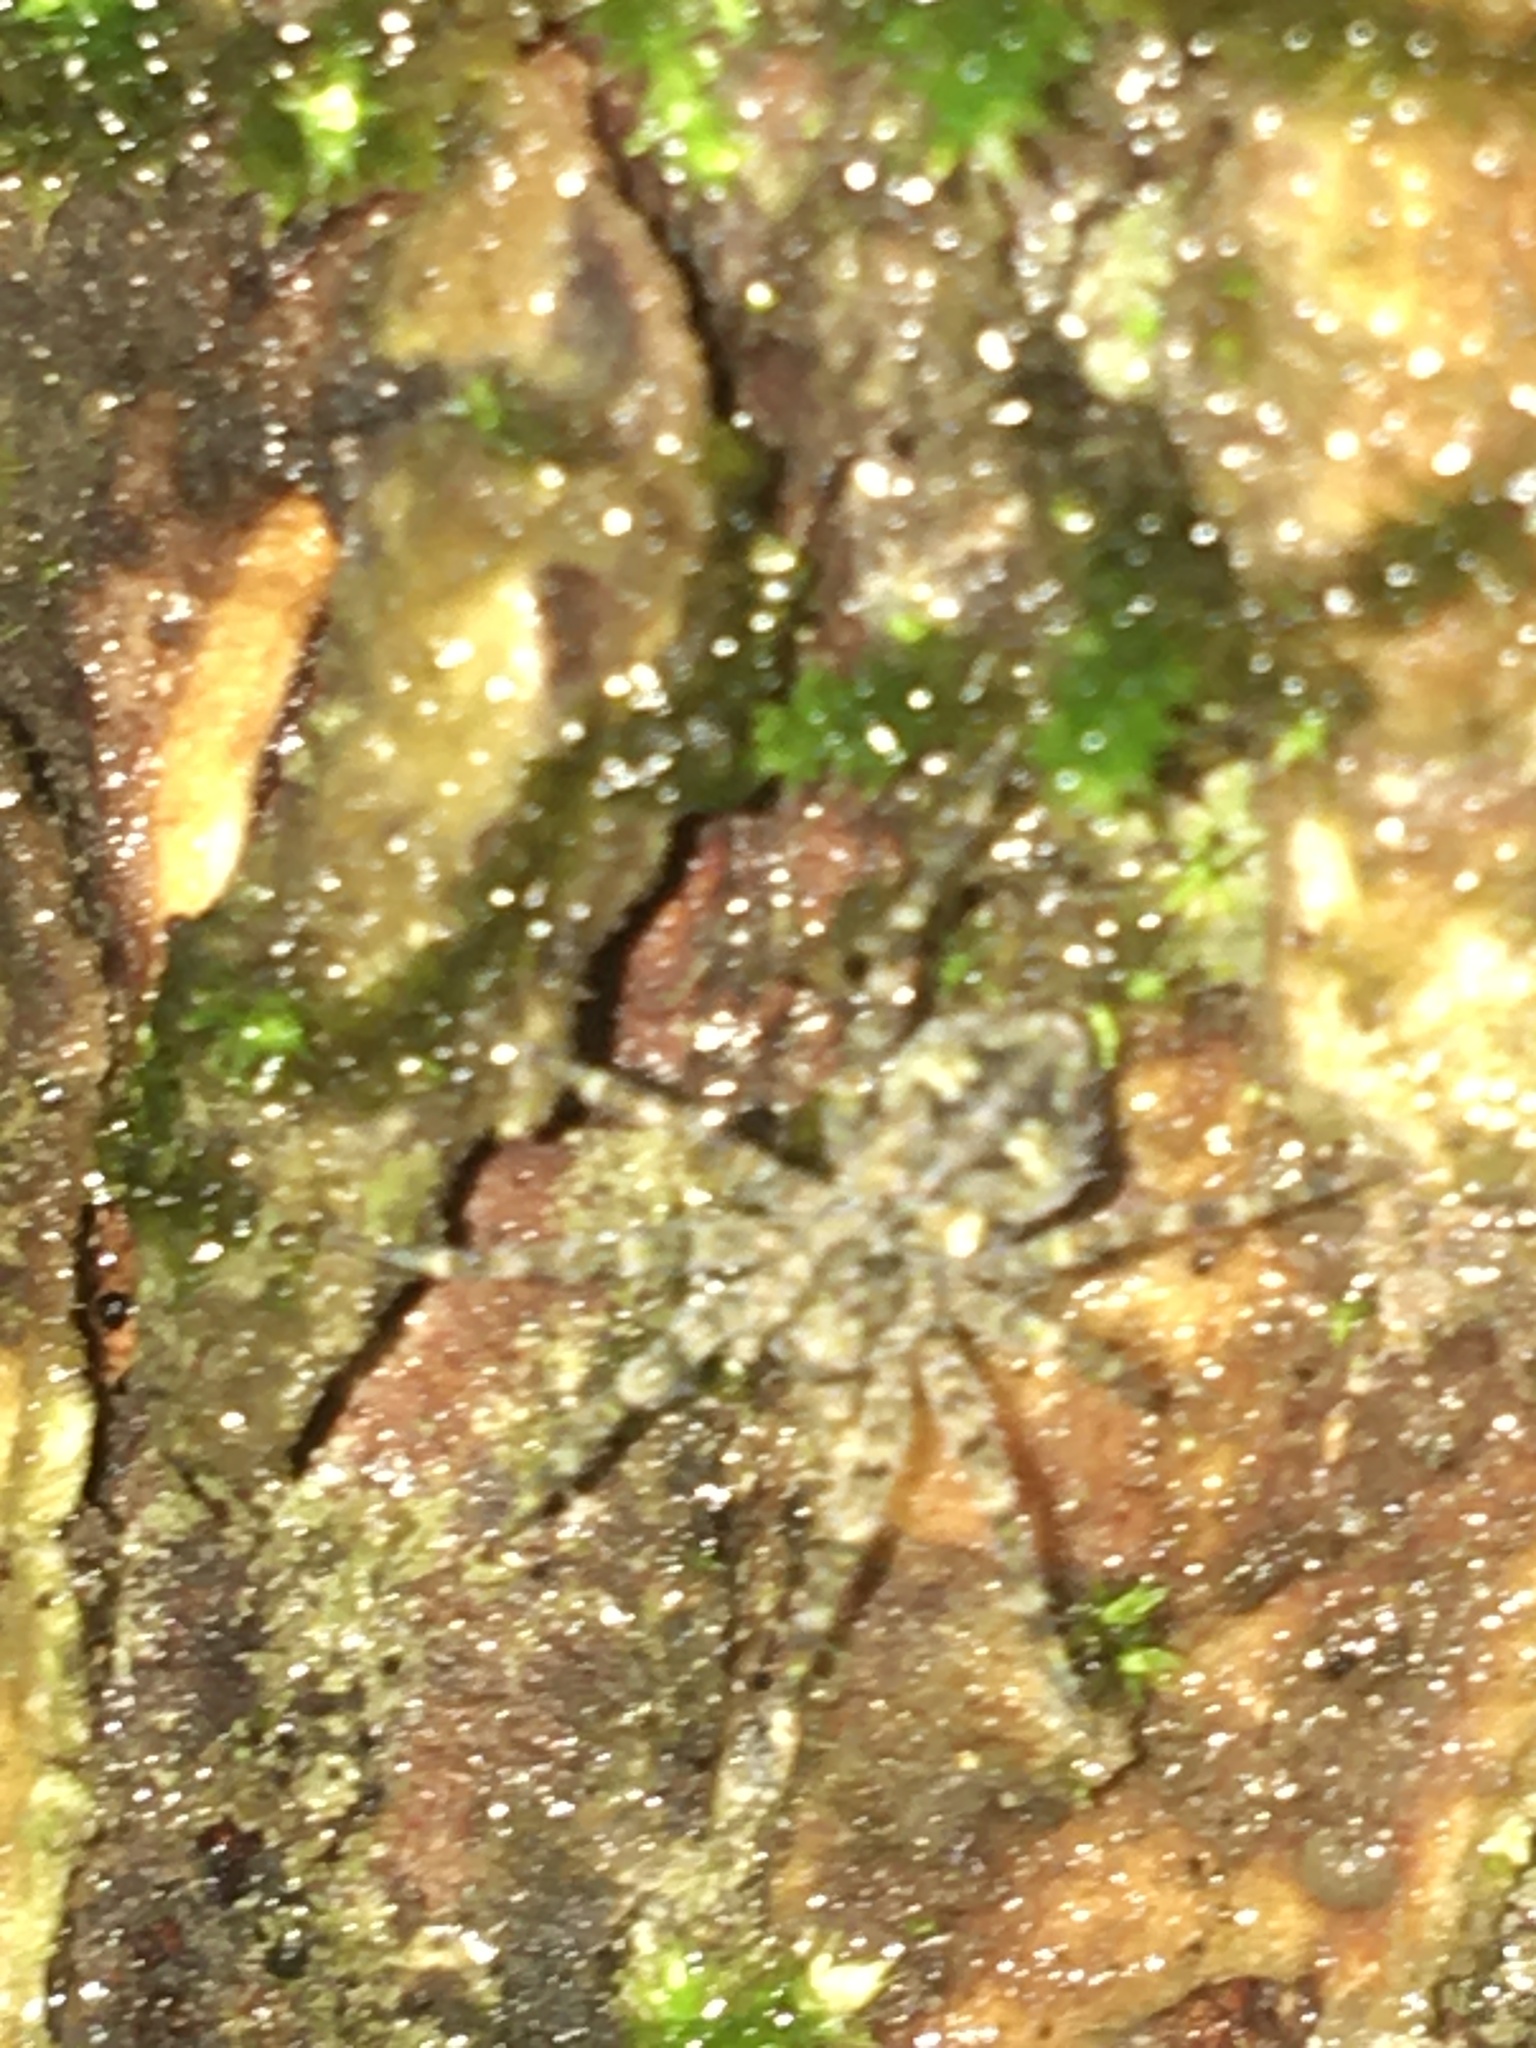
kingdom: Animalia
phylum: Arthropoda
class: Arachnida
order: Araneae
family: Pisauridae
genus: Dolomedes
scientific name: Dolomedes albineus
